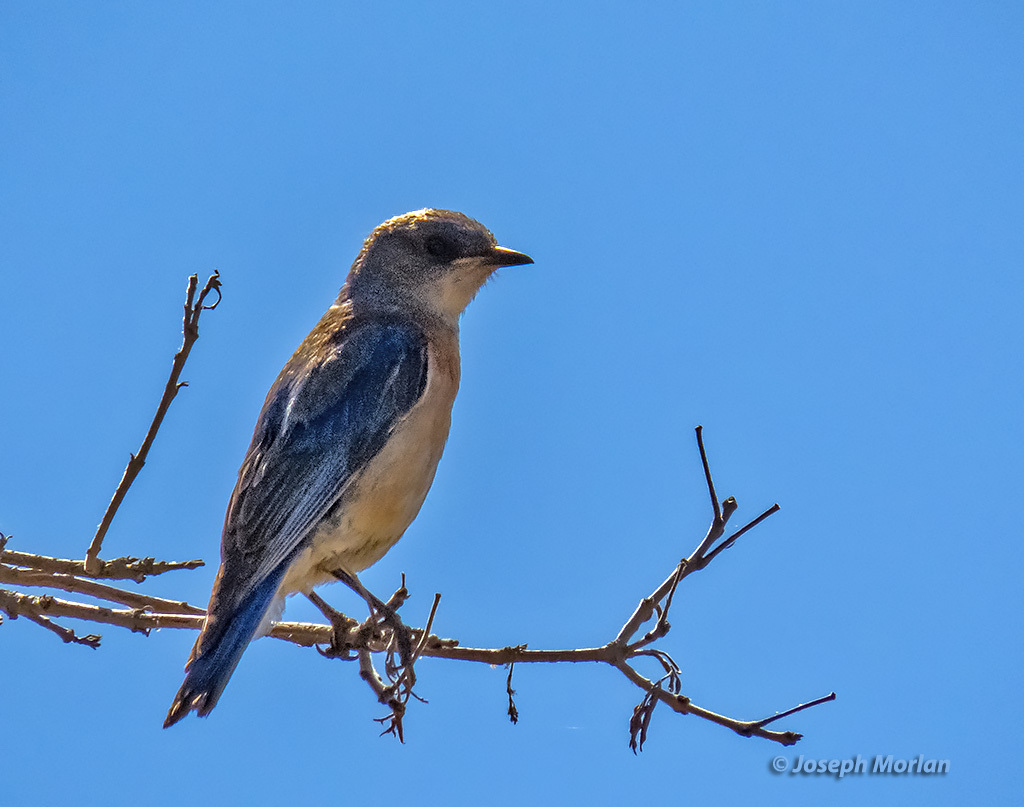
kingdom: Animalia
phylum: Chordata
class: Aves
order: Passeriformes
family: Turdidae
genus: Sialia
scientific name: Sialia mexicana
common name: Western bluebird
